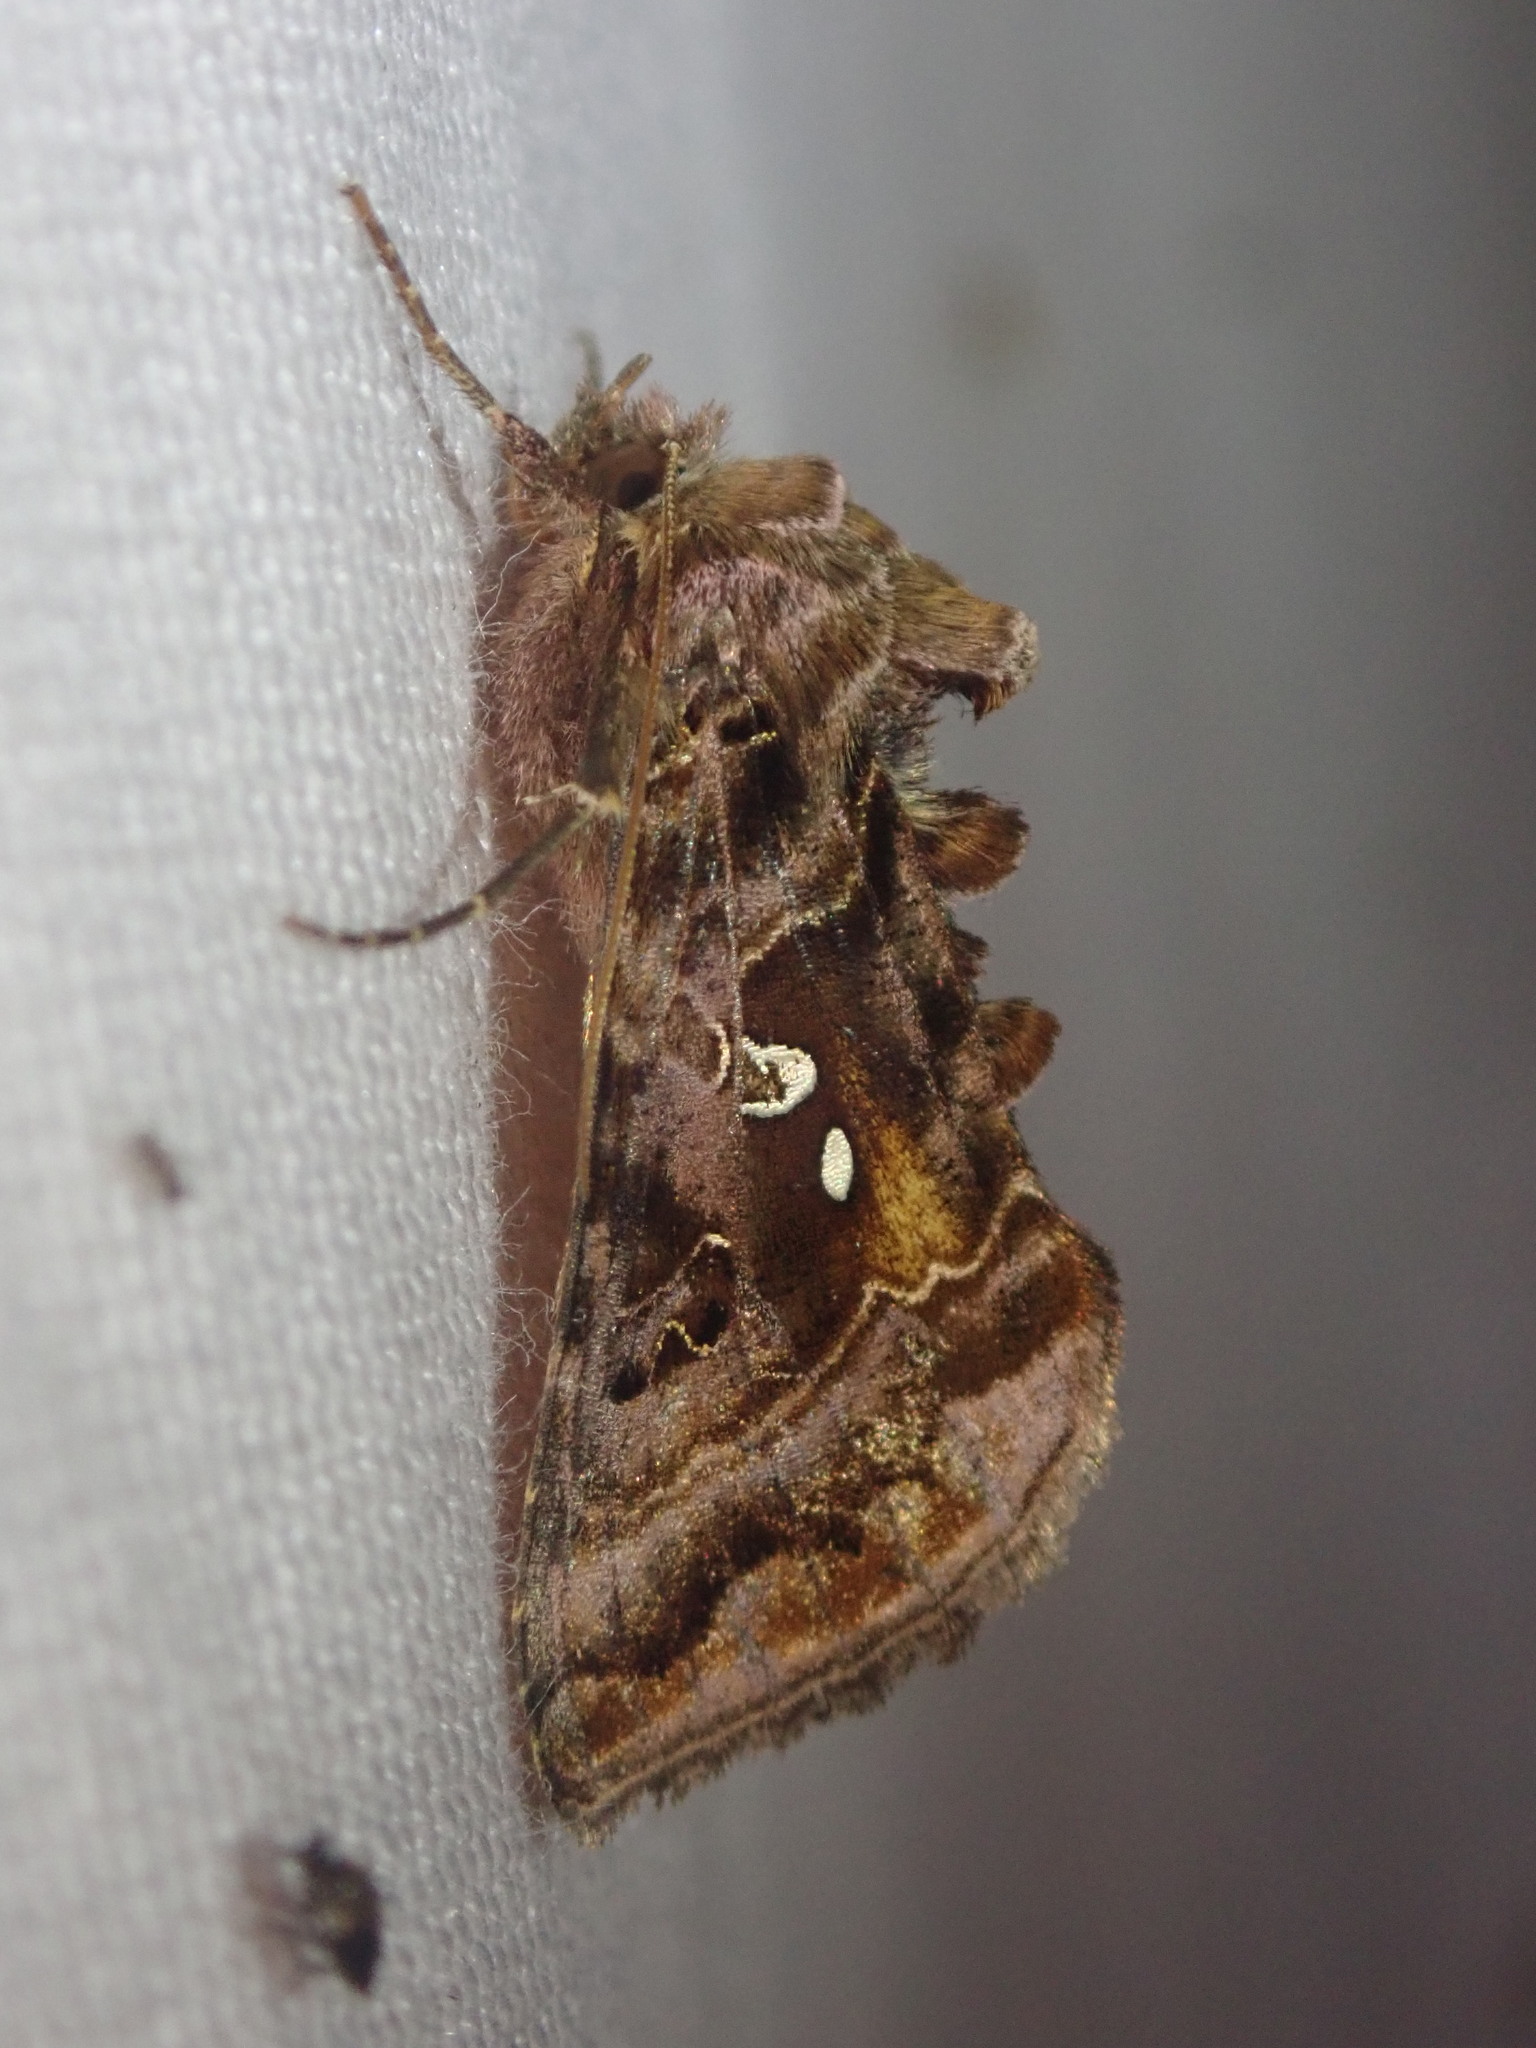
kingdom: Animalia
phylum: Arthropoda
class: Insecta
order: Lepidoptera
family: Noctuidae
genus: Autographa
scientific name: Autographa pulchrina
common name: Beautiful golden y
